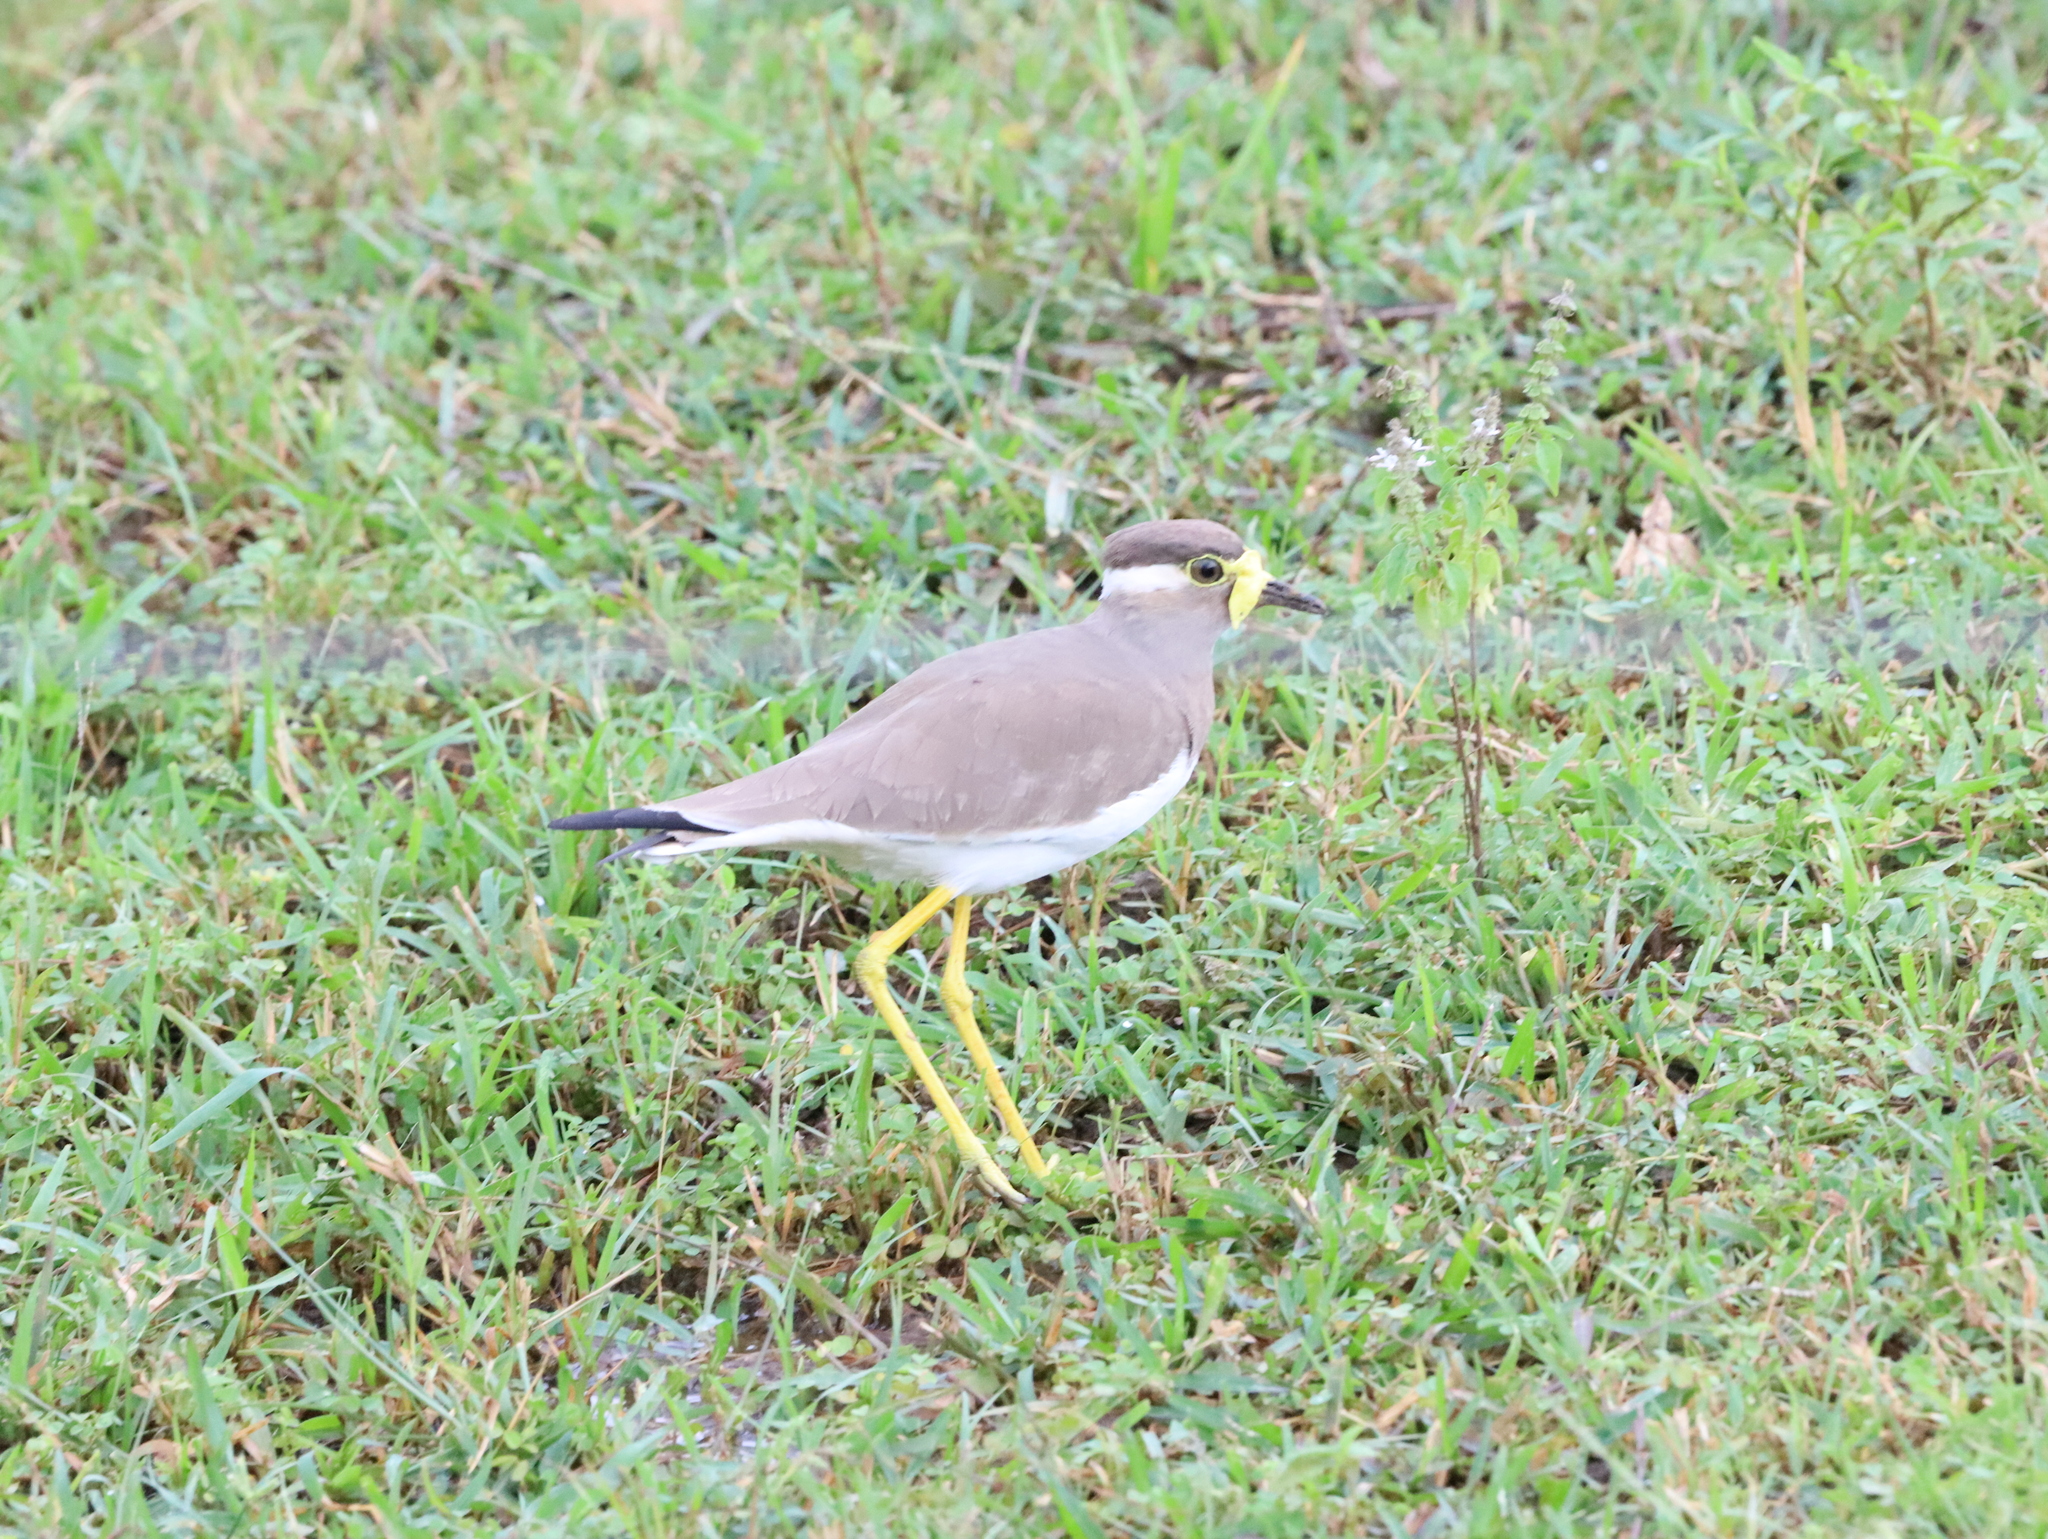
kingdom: Animalia
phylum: Chordata
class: Aves
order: Charadriiformes
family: Charadriidae
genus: Vanellus
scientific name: Vanellus malabaricus
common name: Yellow-wattled lapwing
